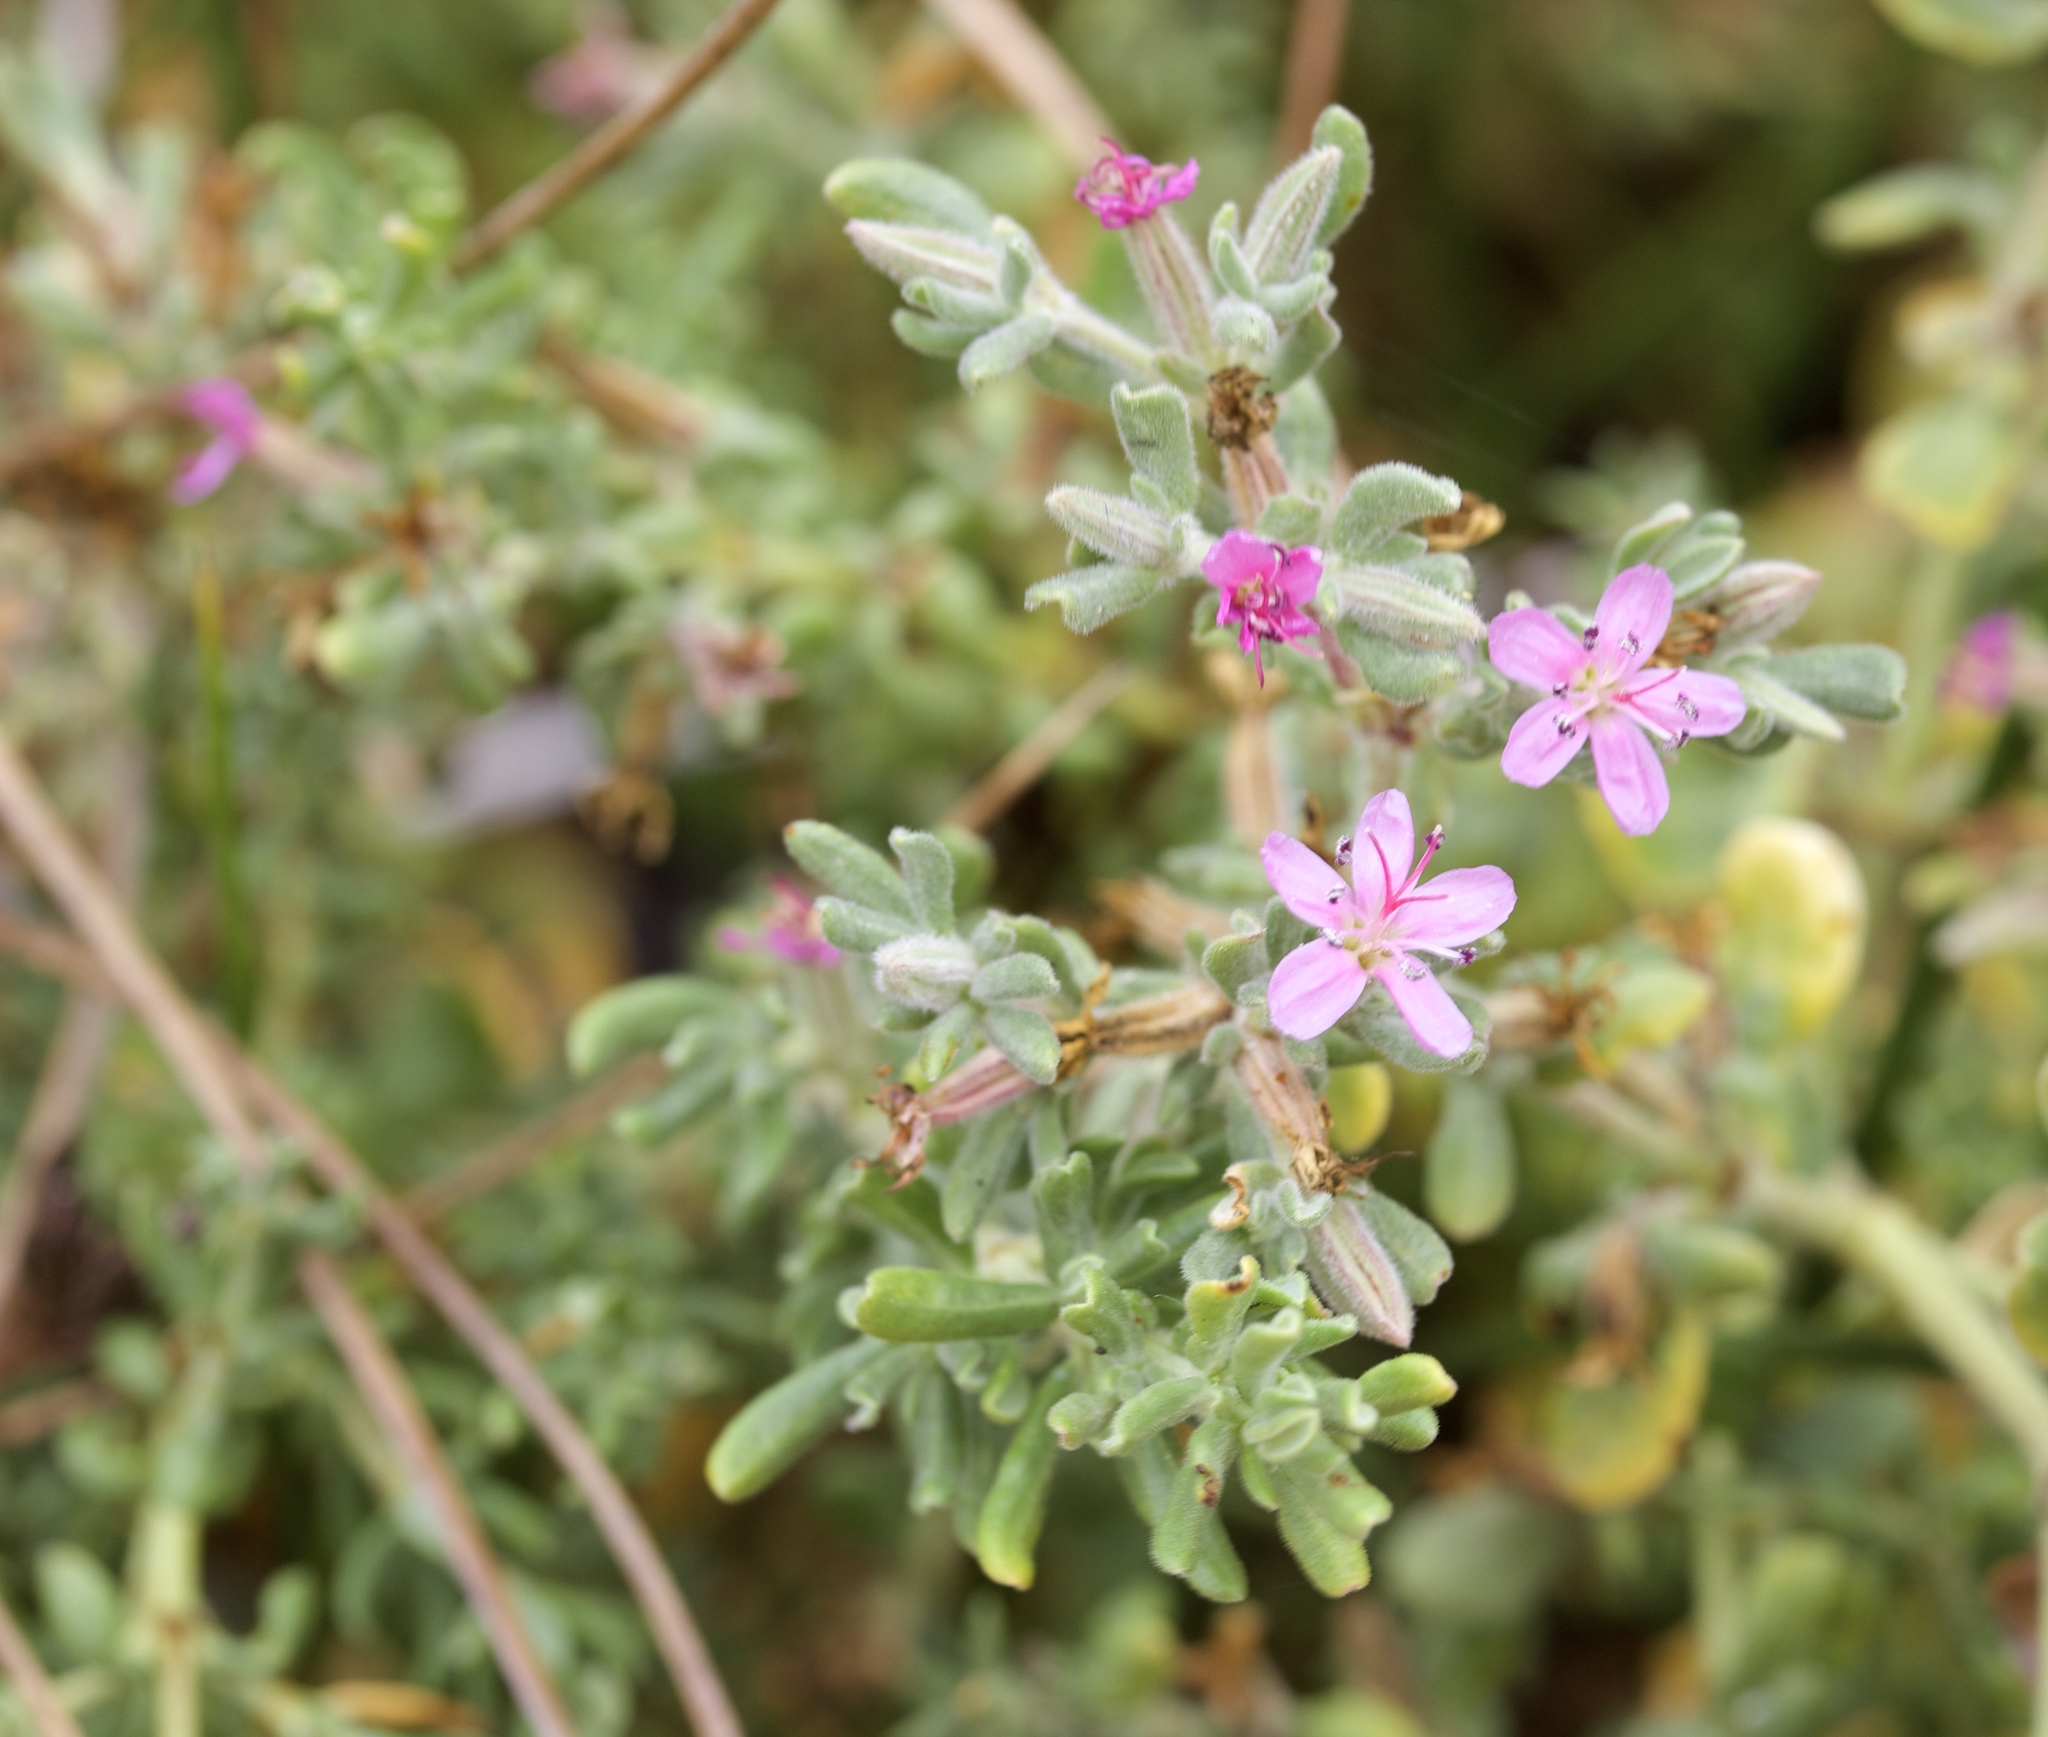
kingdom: Plantae
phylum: Tracheophyta
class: Magnoliopsida
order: Caryophyllales
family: Frankeniaceae
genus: Frankenia
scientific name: Frankenia salina
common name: Alkali seaheath
